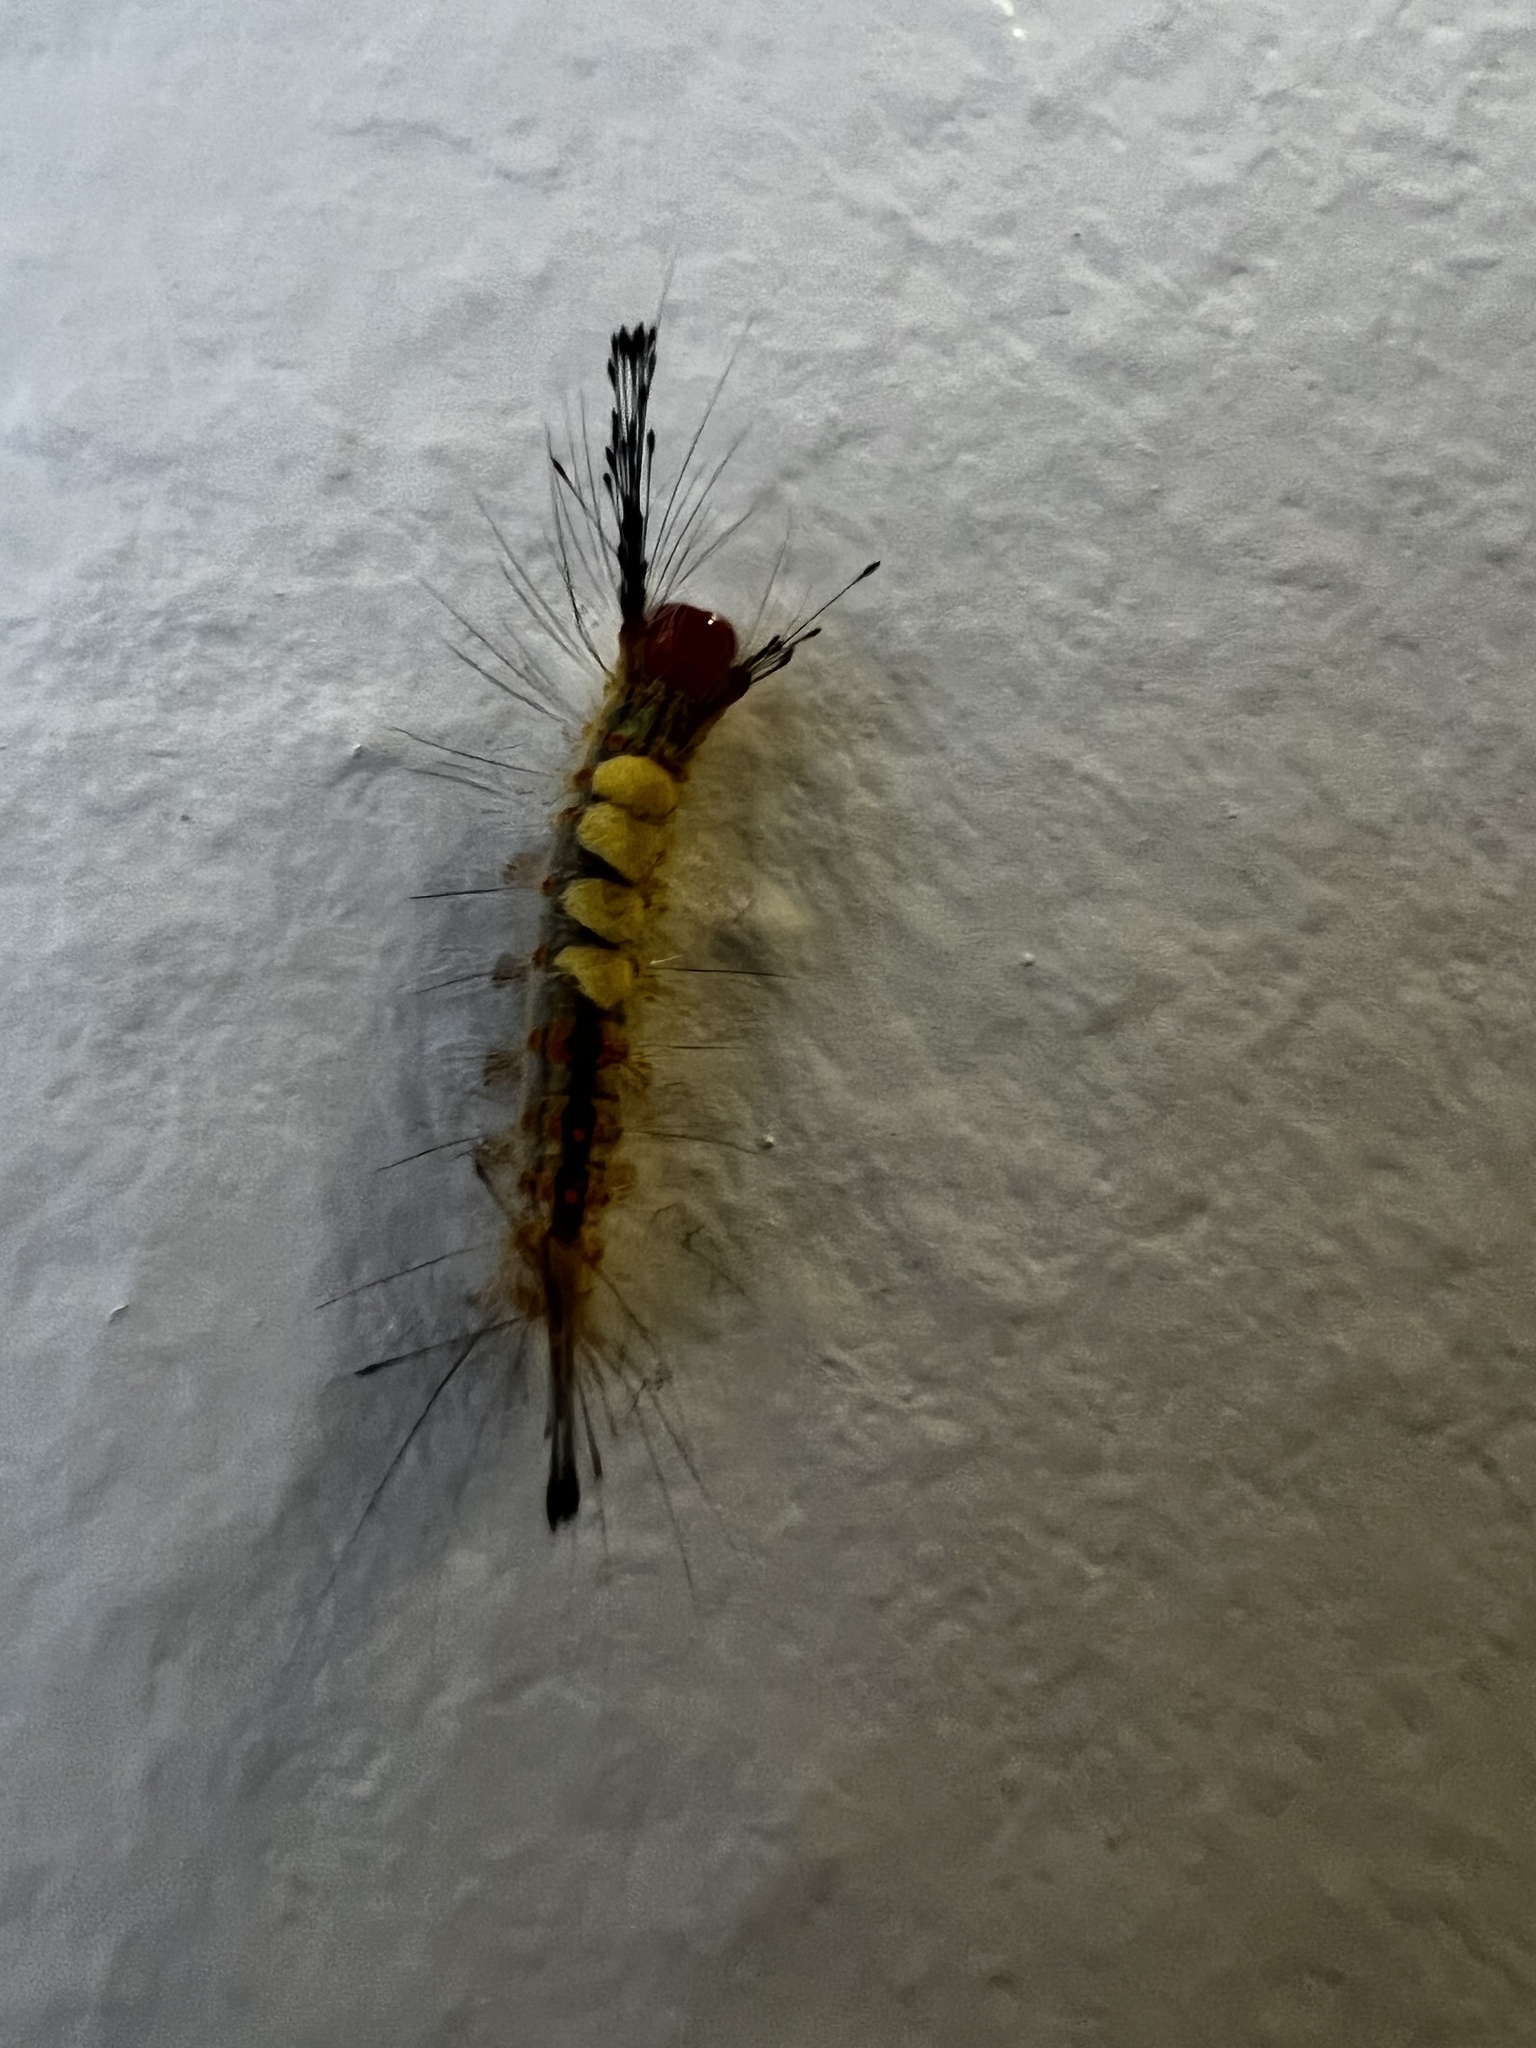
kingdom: Animalia
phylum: Arthropoda
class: Insecta
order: Lepidoptera
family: Erebidae
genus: Orgyia
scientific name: Orgyia detrita
